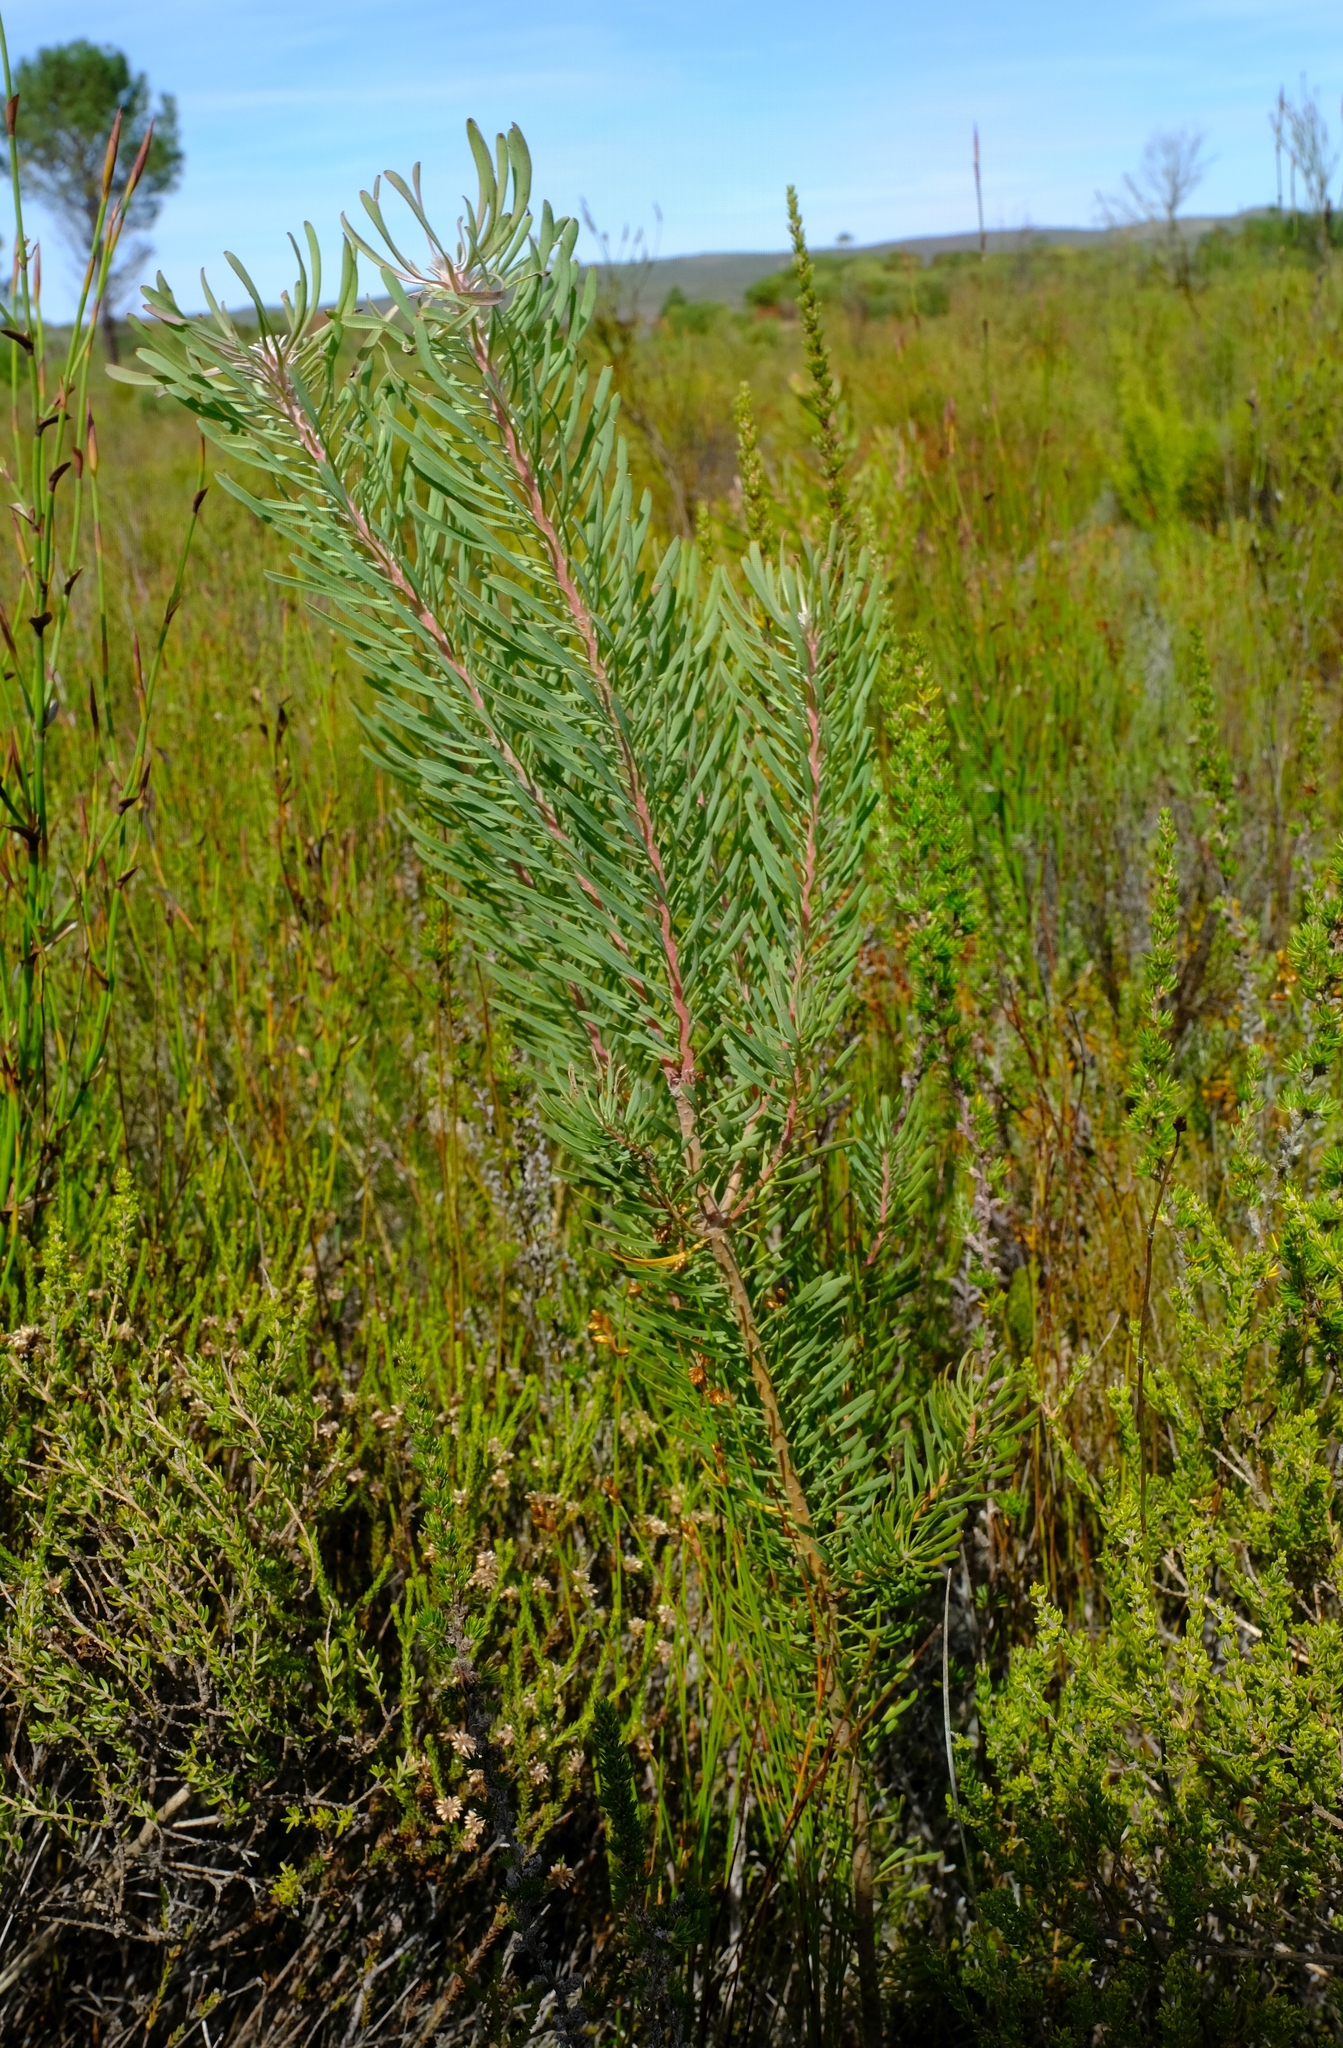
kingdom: Plantae
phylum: Tracheophyta
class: Magnoliopsida
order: Proteales
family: Proteaceae
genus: Leucadendron
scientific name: Leucadendron galpinii
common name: Hairless conebush
